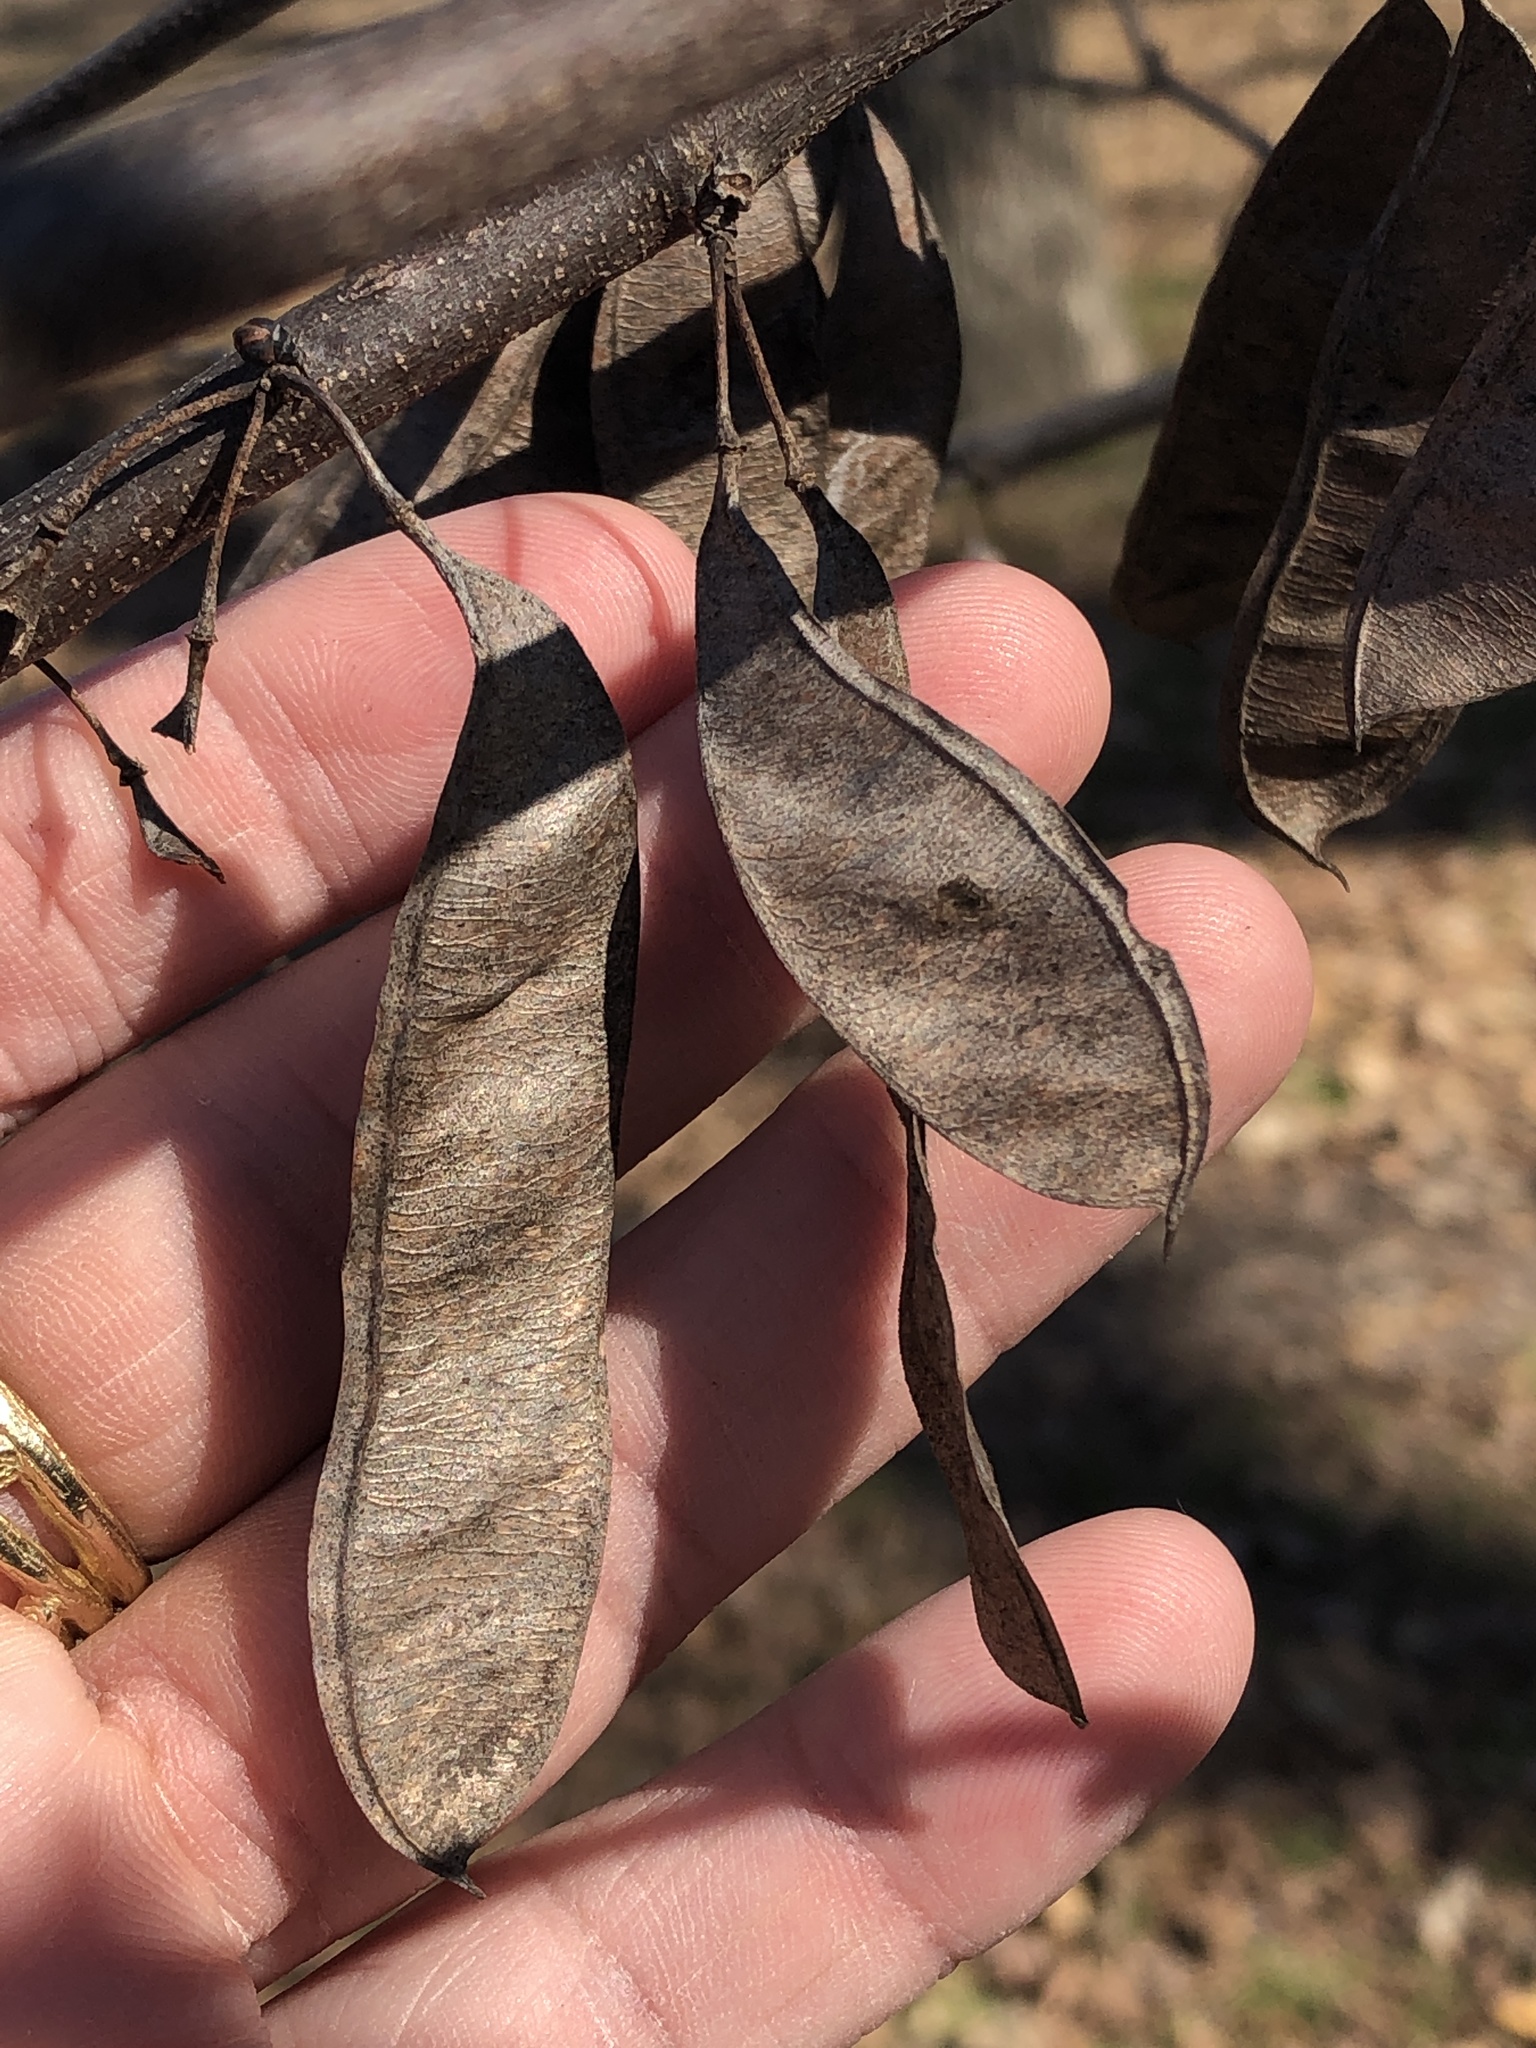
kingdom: Plantae
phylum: Tracheophyta
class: Magnoliopsida
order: Fabales
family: Fabaceae
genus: Cercis
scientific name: Cercis canadensis
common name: Eastern redbud
